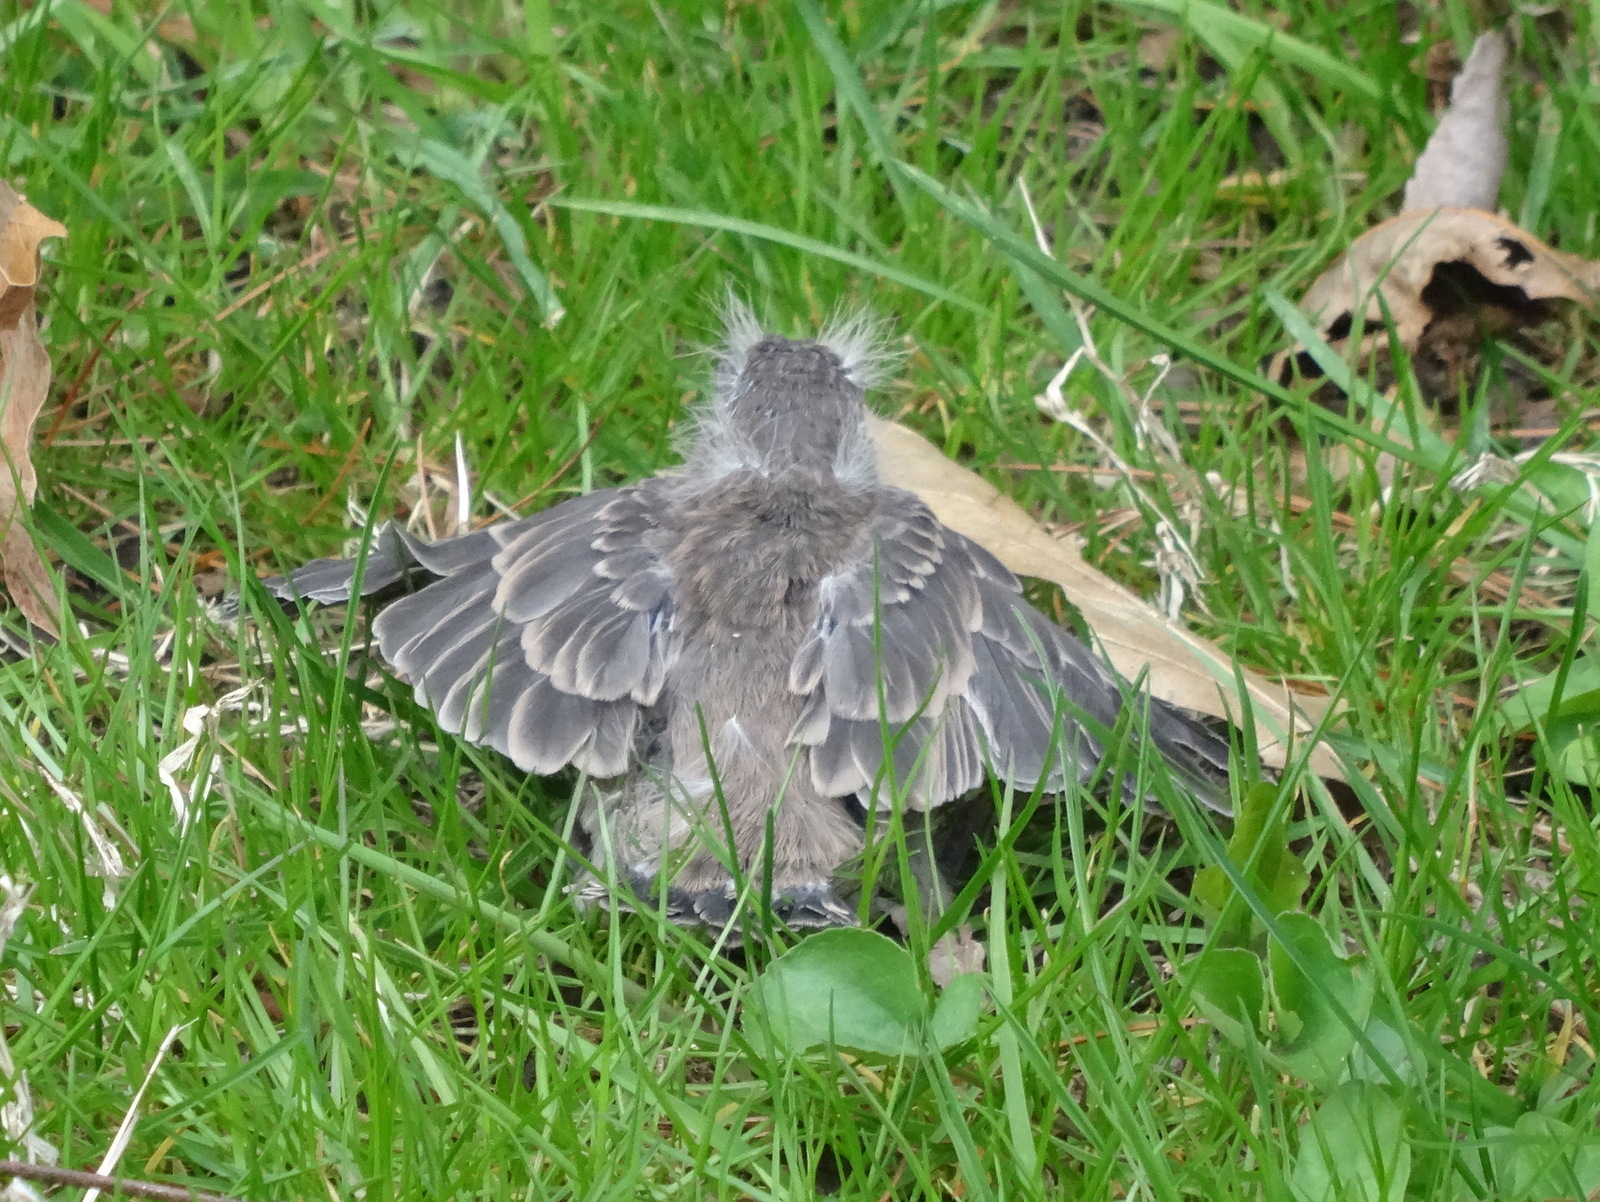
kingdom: Animalia
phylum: Chordata
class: Aves
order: Passeriformes
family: Fringillidae
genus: Haemorhous
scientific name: Haemorhous mexicanus
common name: House finch
